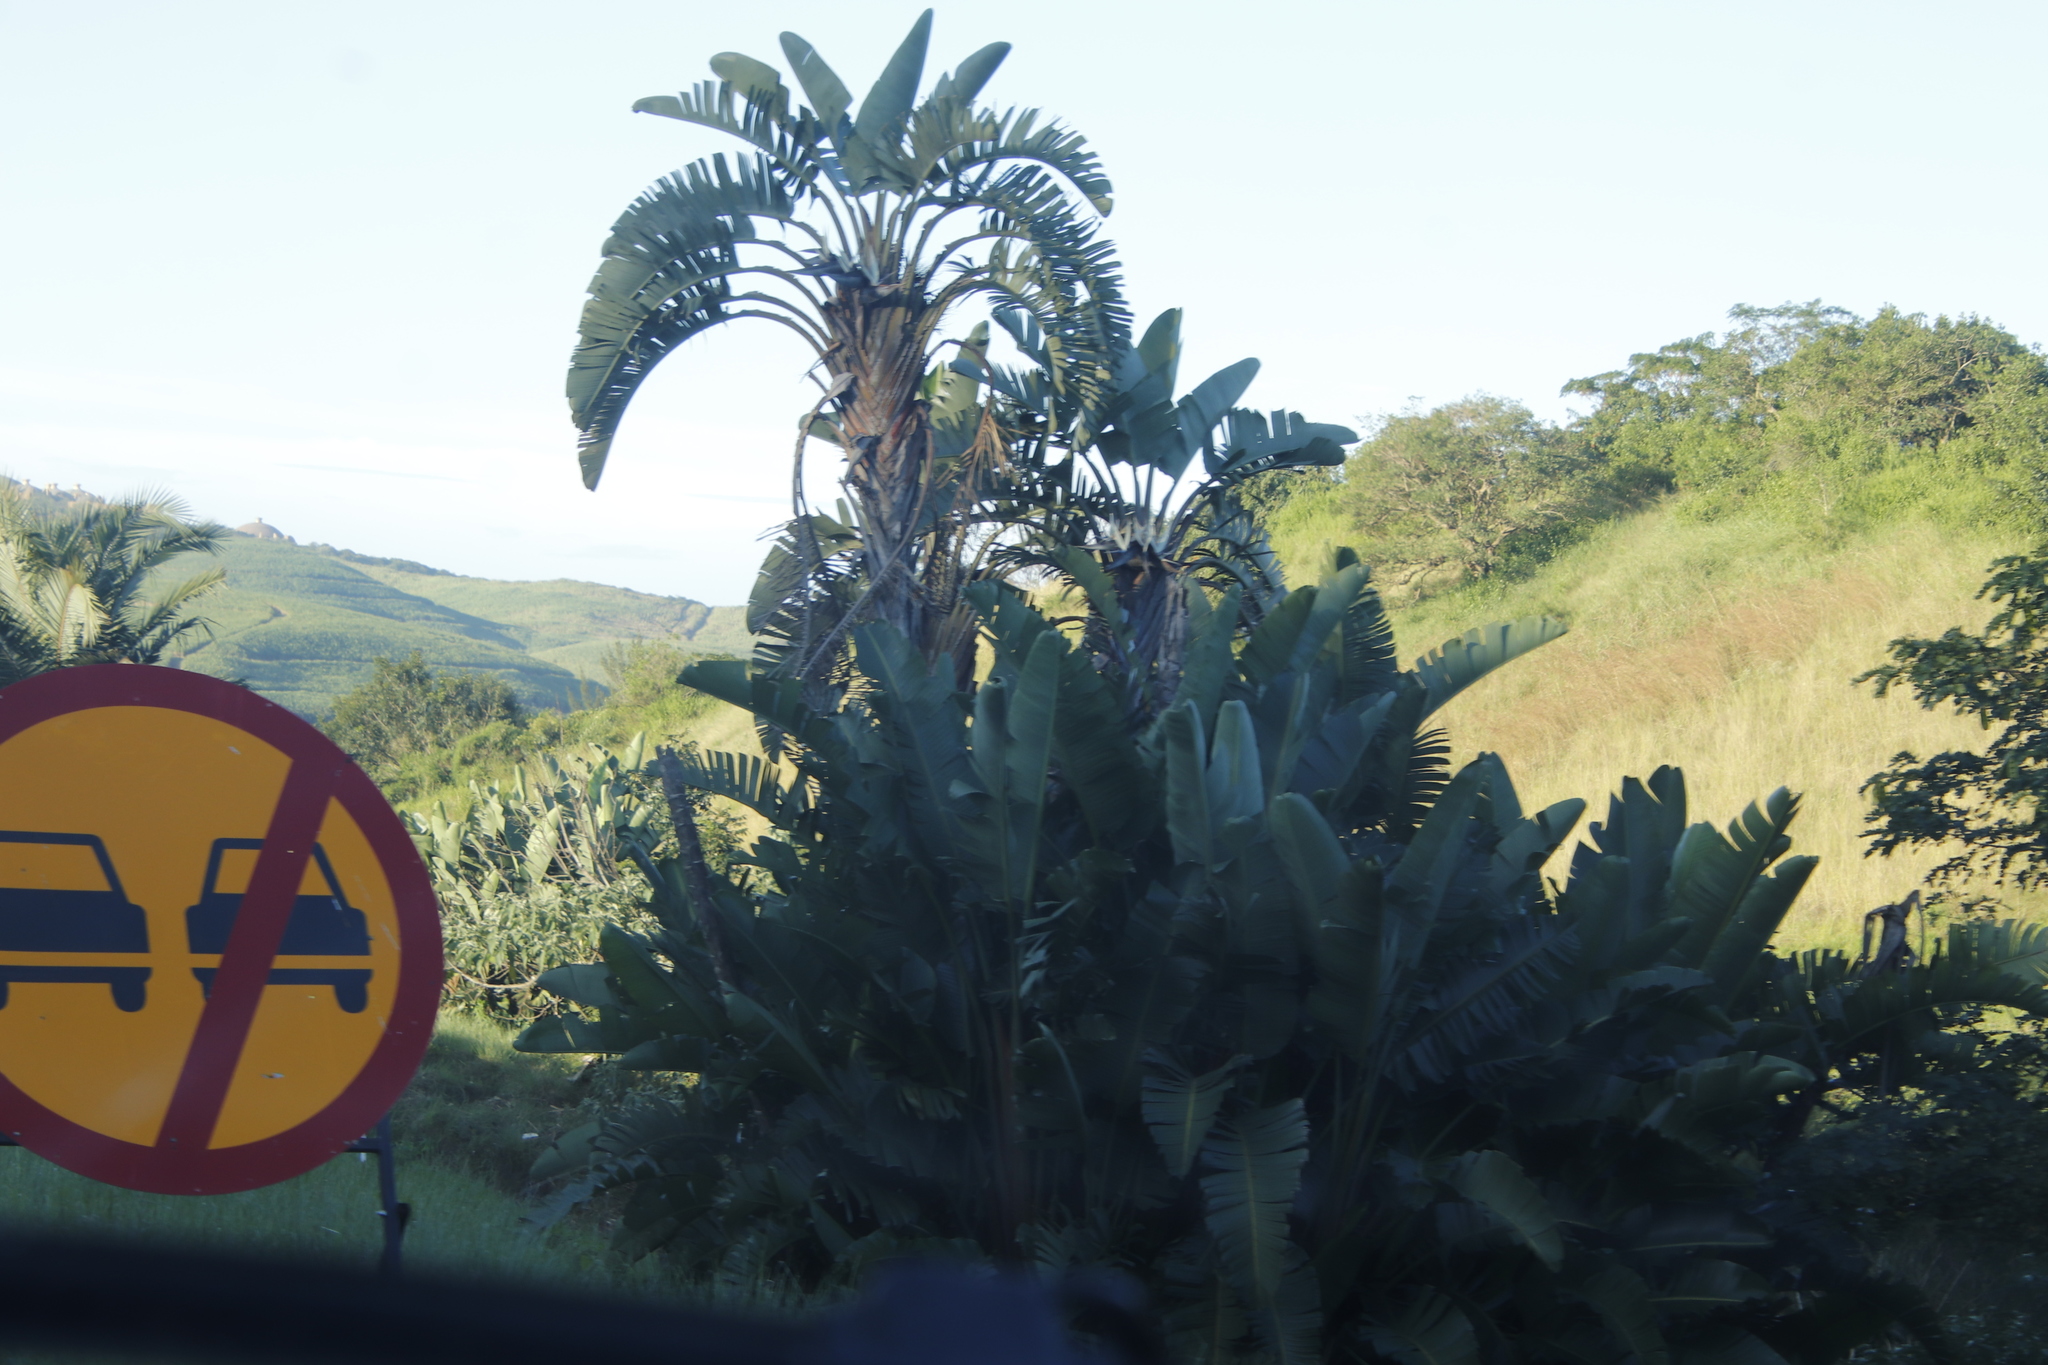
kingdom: Plantae
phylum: Tracheophyta
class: Liliopsida
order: Zingiberales
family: Strelitziaceae
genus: Strelitzia
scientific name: Strelitzia nicolai
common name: Bird-of-paradise tree
